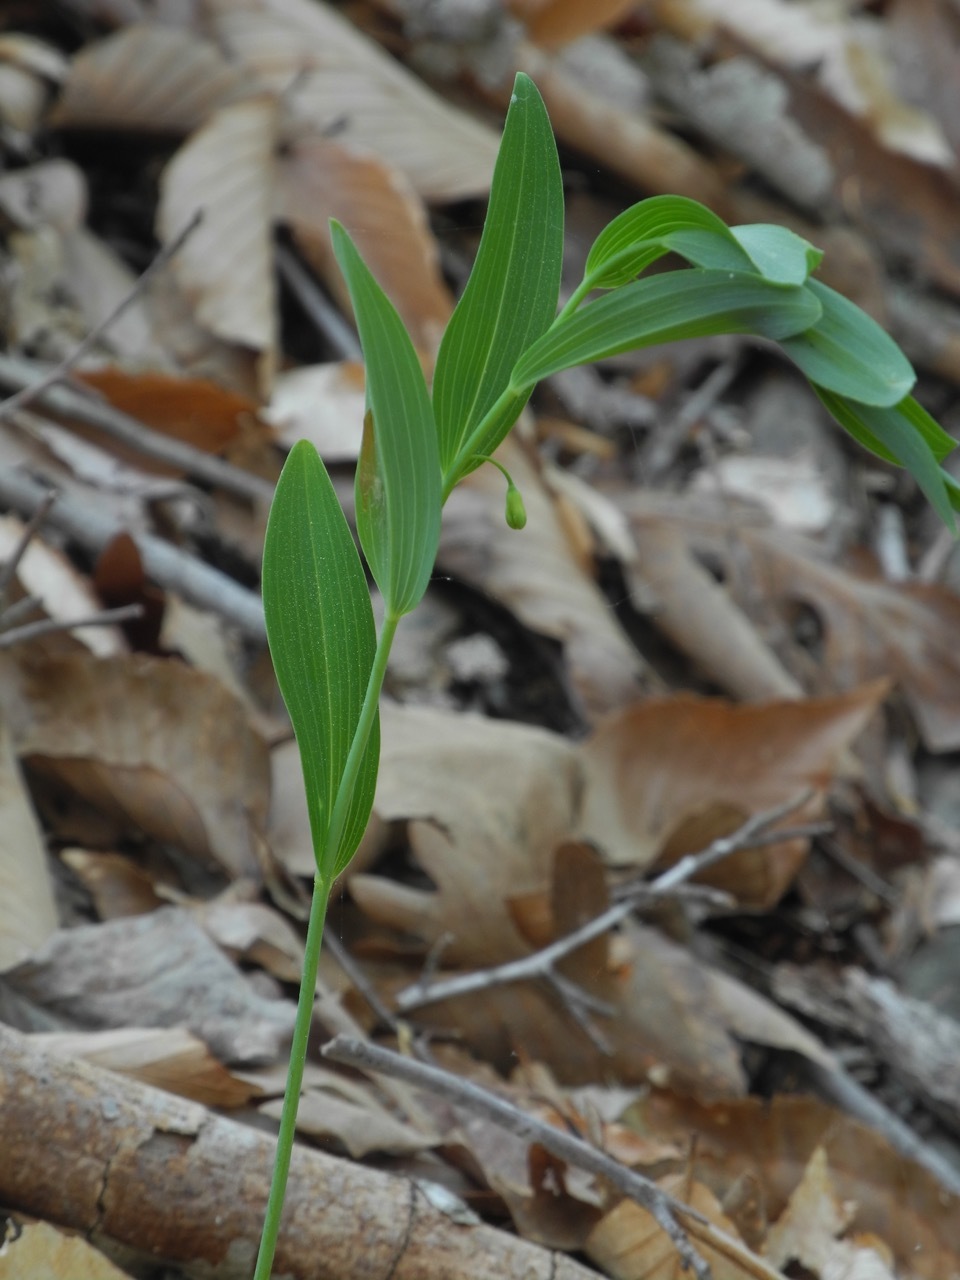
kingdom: Plantae
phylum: Tracheophyta
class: Liliopsida
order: Asparagales
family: Asparagaceae
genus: Polygonatum
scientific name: Polygonatum biflorum
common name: American solomon's-seal
